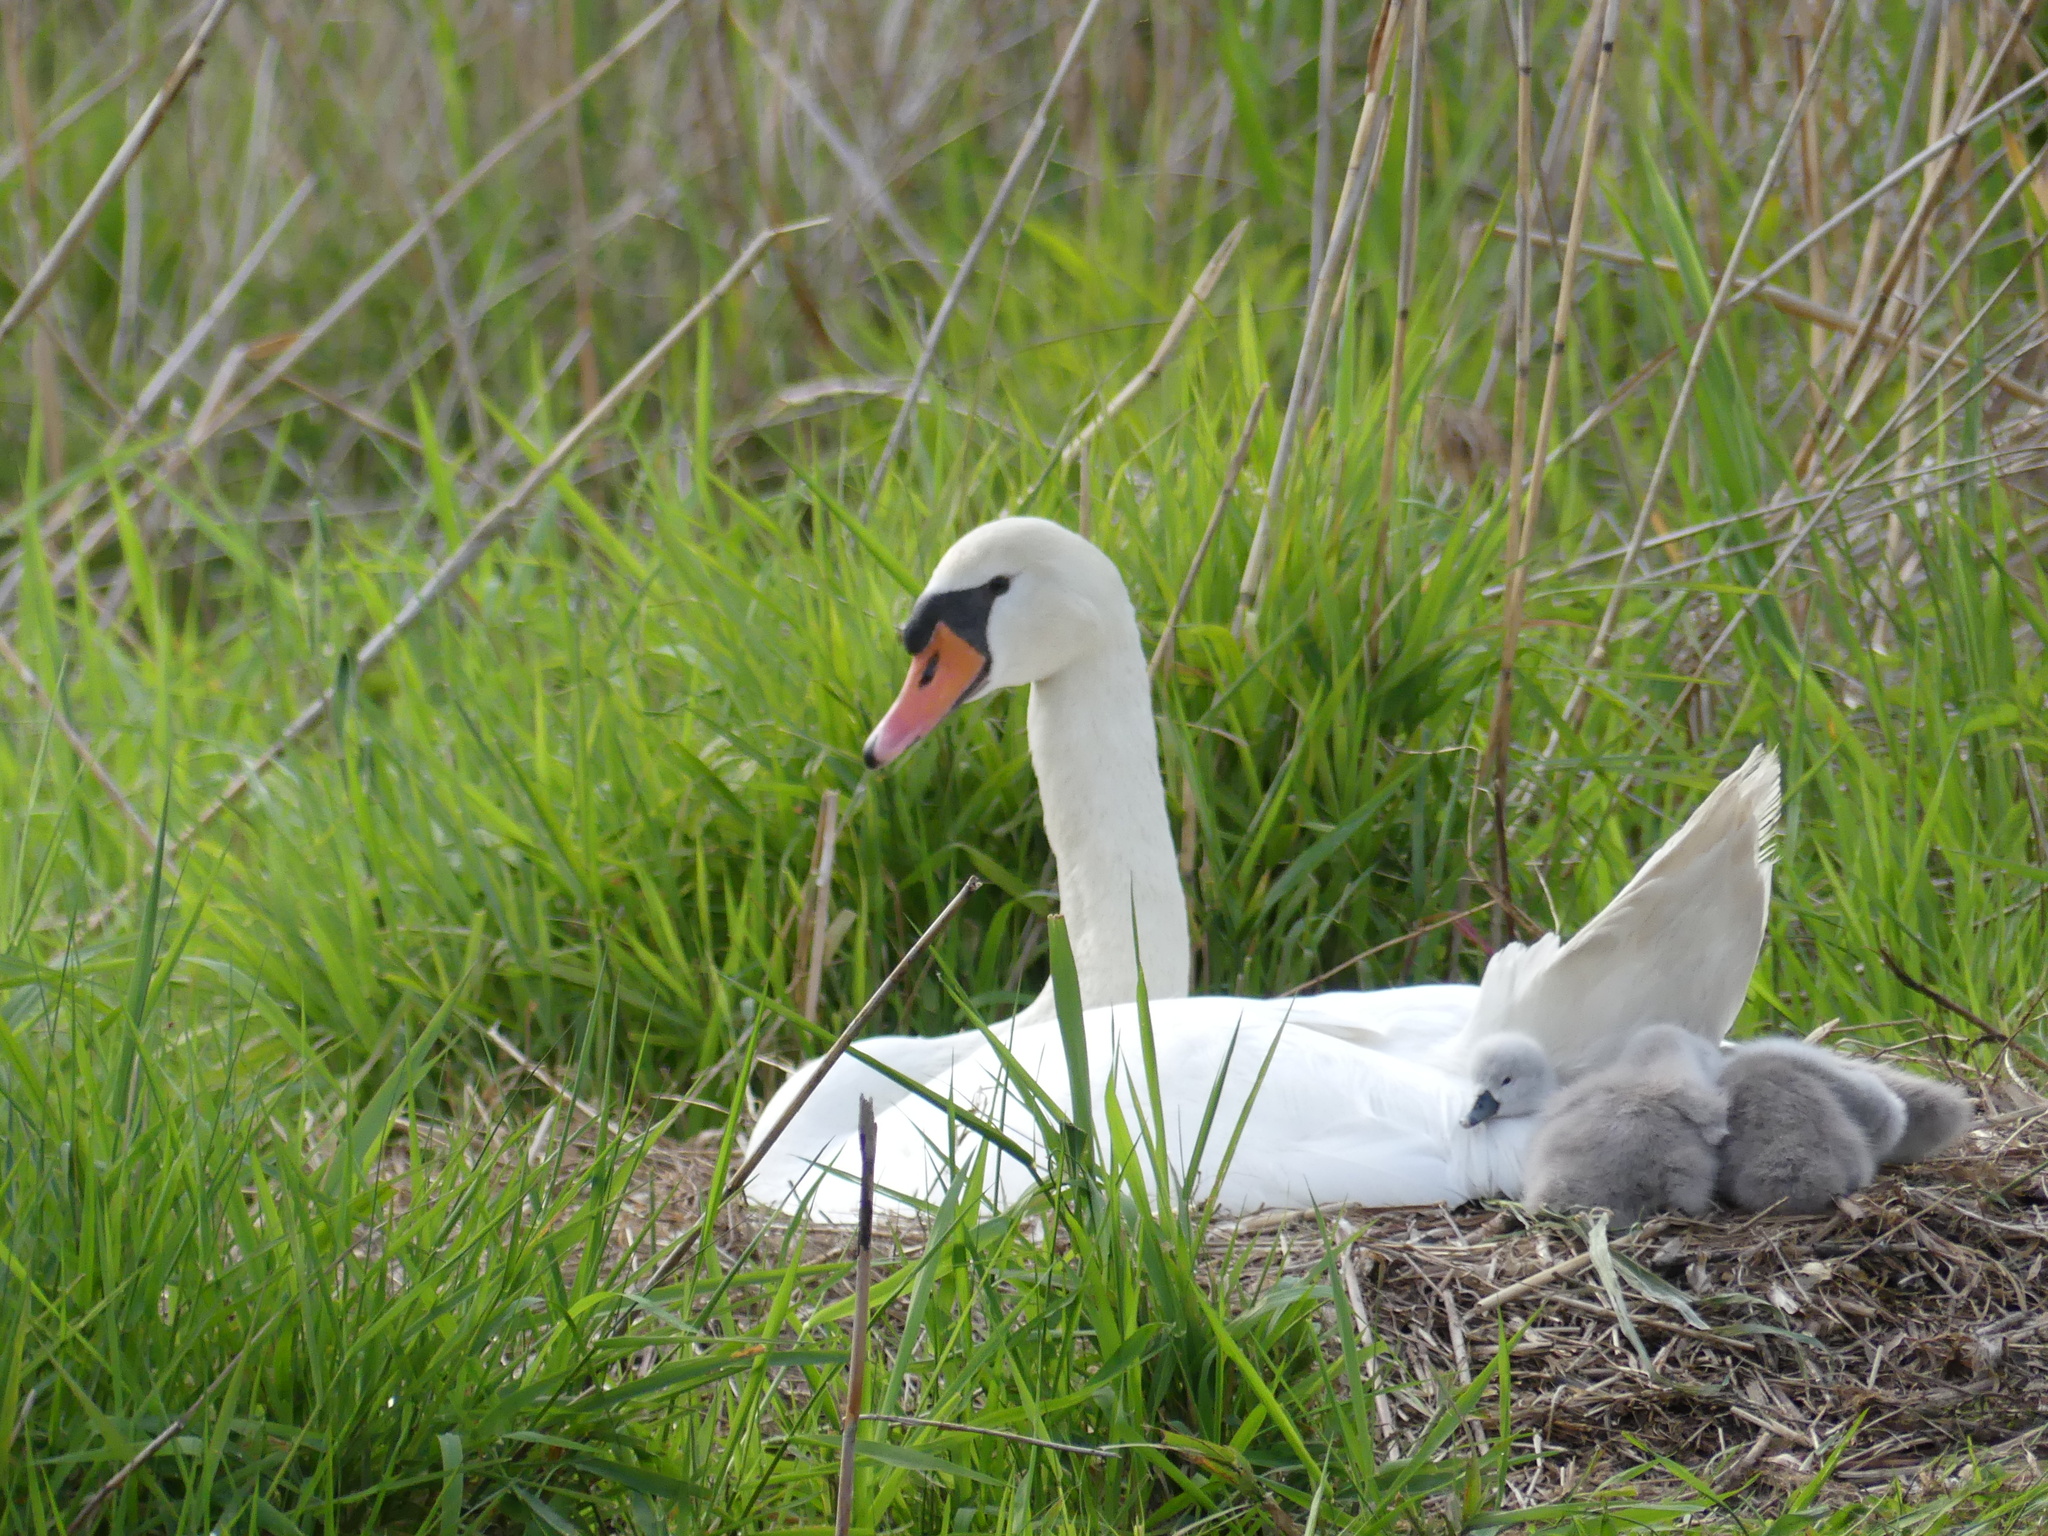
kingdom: Animalia
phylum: Chordata
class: Aves
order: Anseriformes
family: Anatidae
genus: Cygnus
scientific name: Cygnus olor
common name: Mute swan
